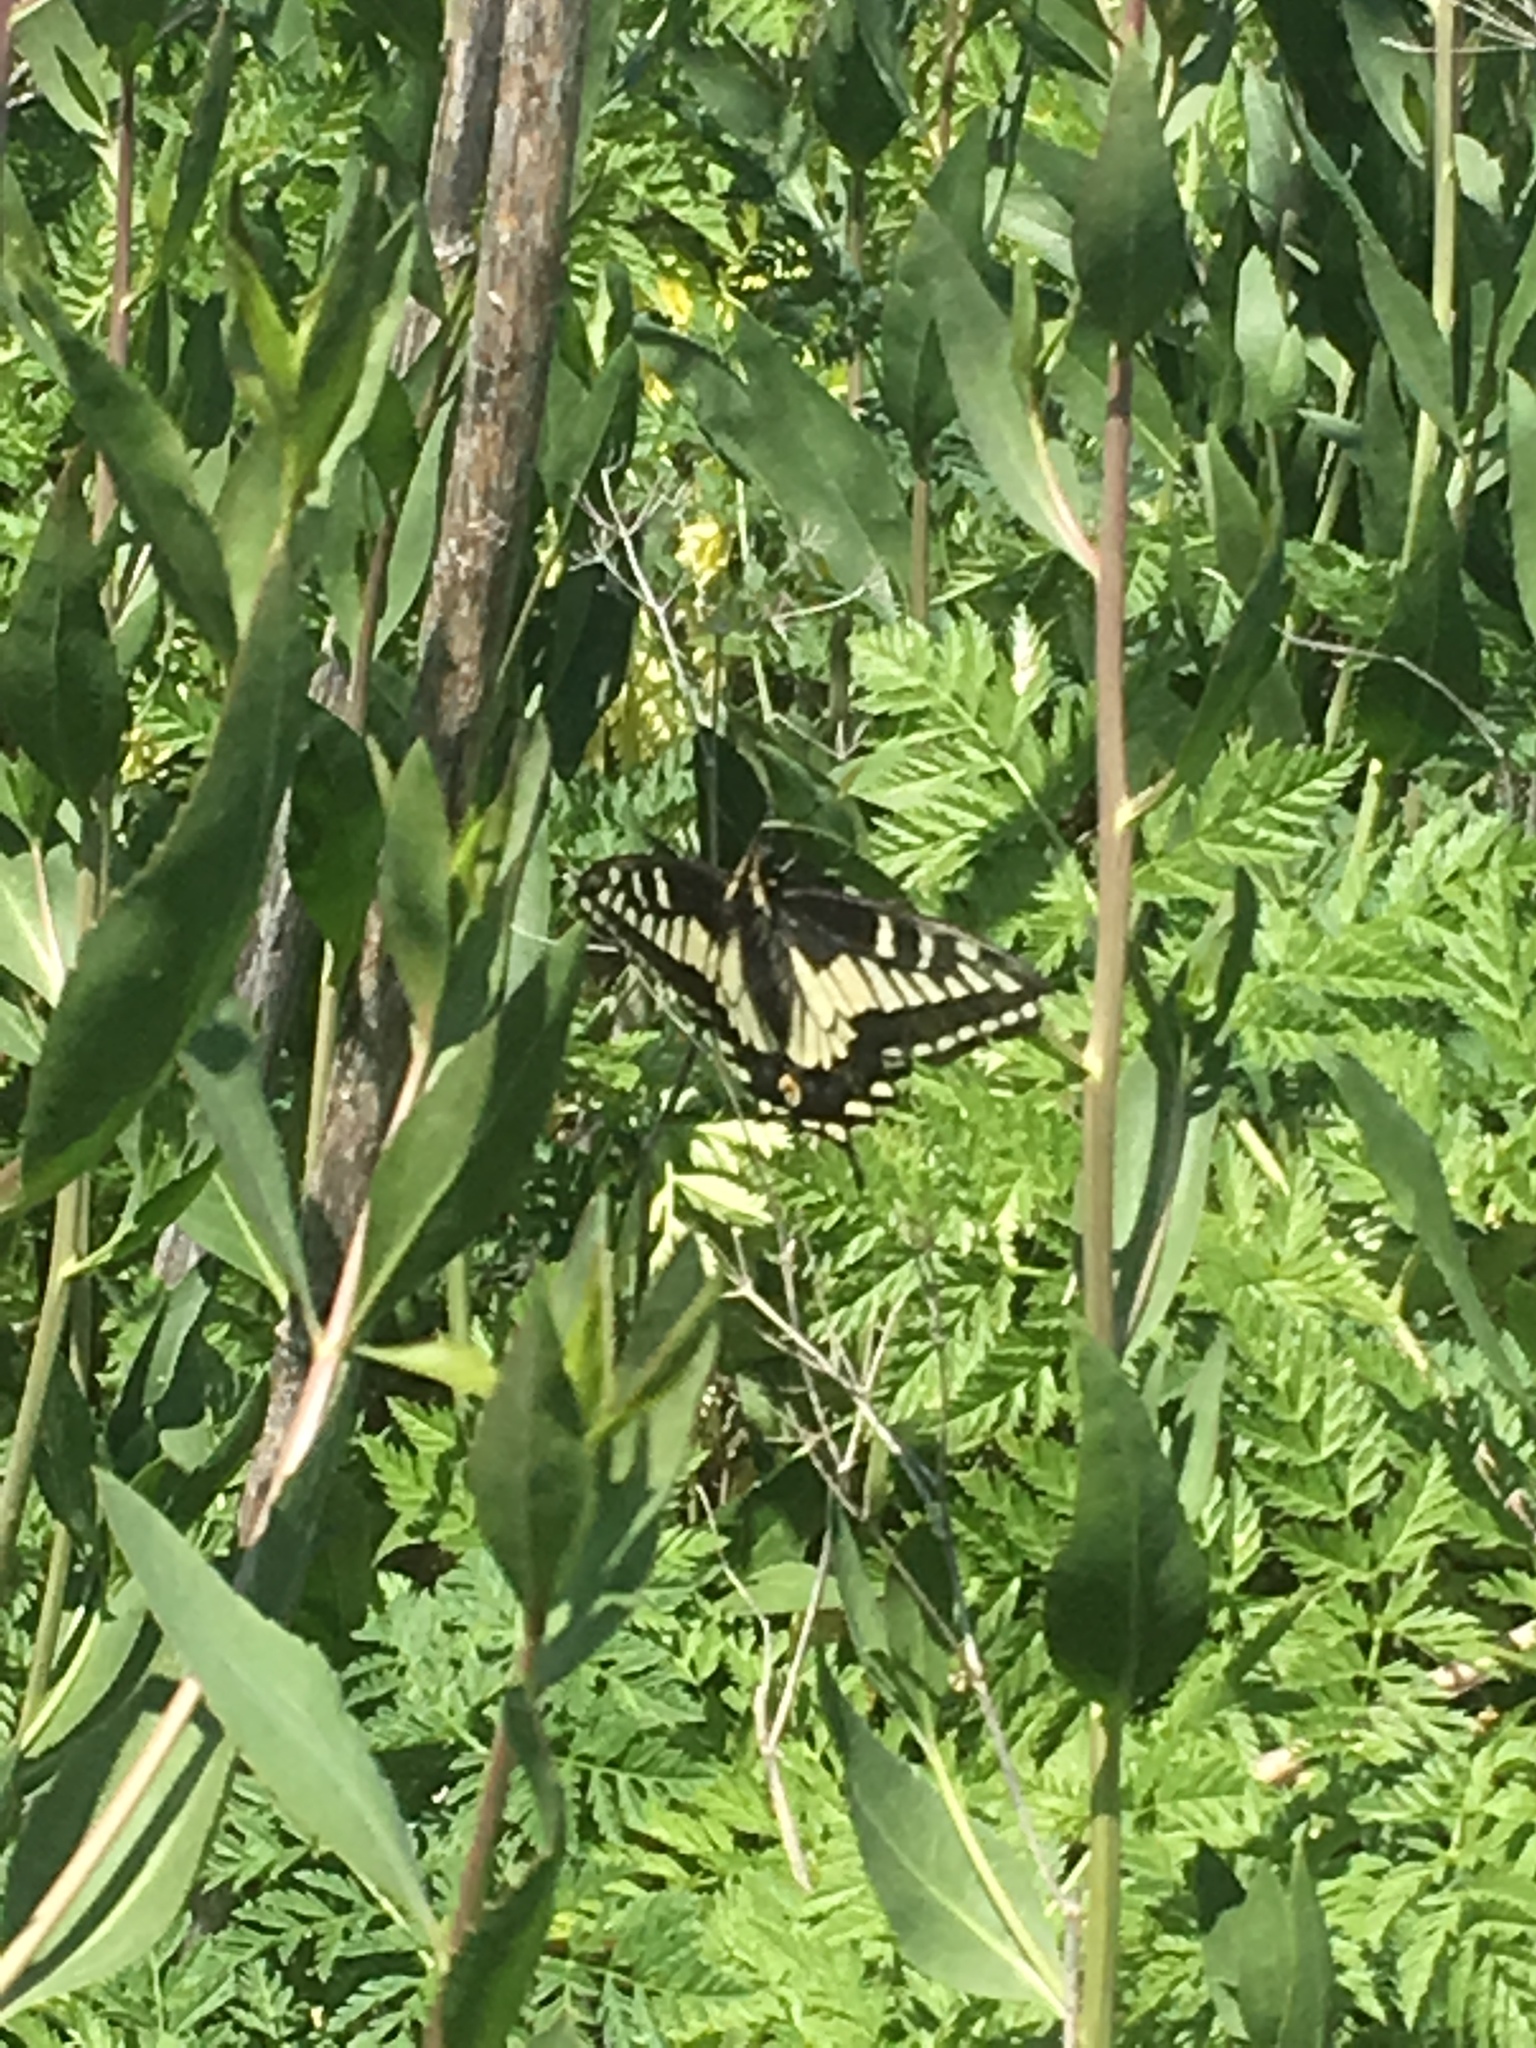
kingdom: Animalia
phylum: Arthropoda
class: Insecta
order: Lepidoptera
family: Papilionidae
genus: Papilio
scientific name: Papilio zelicaon
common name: Anise swallowtail
